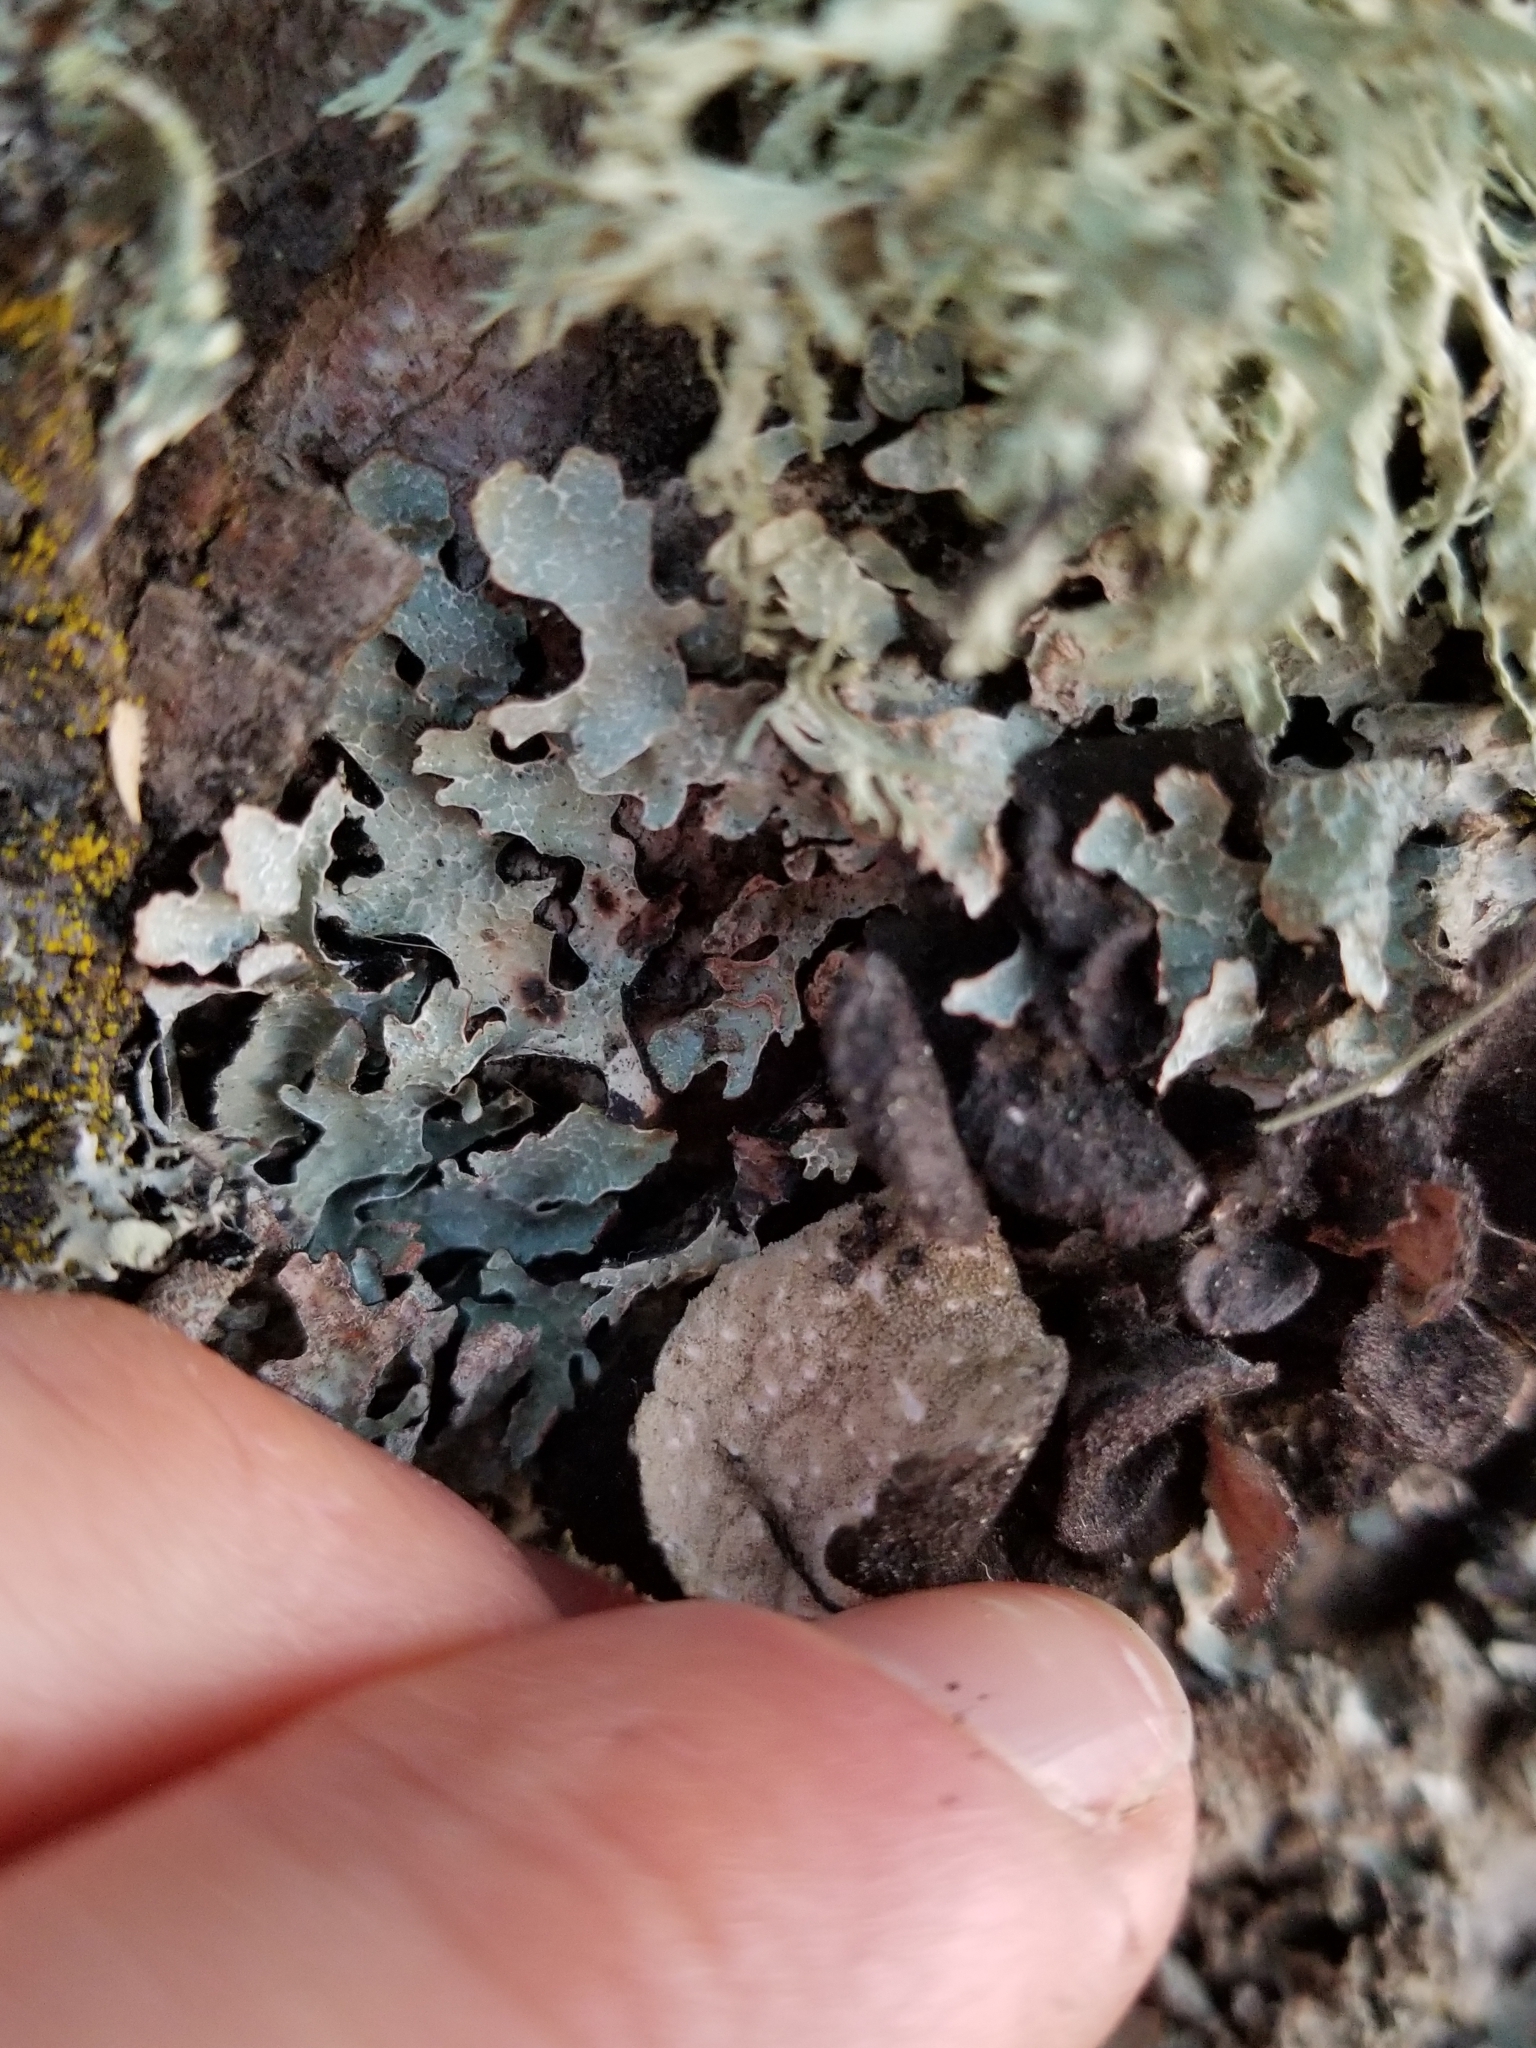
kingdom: Fungi
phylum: Ascomycota
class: Lecanoromycetes
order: Peltigerales
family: Lobariaceae
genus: Sticta
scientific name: Sticta fuliginosa
